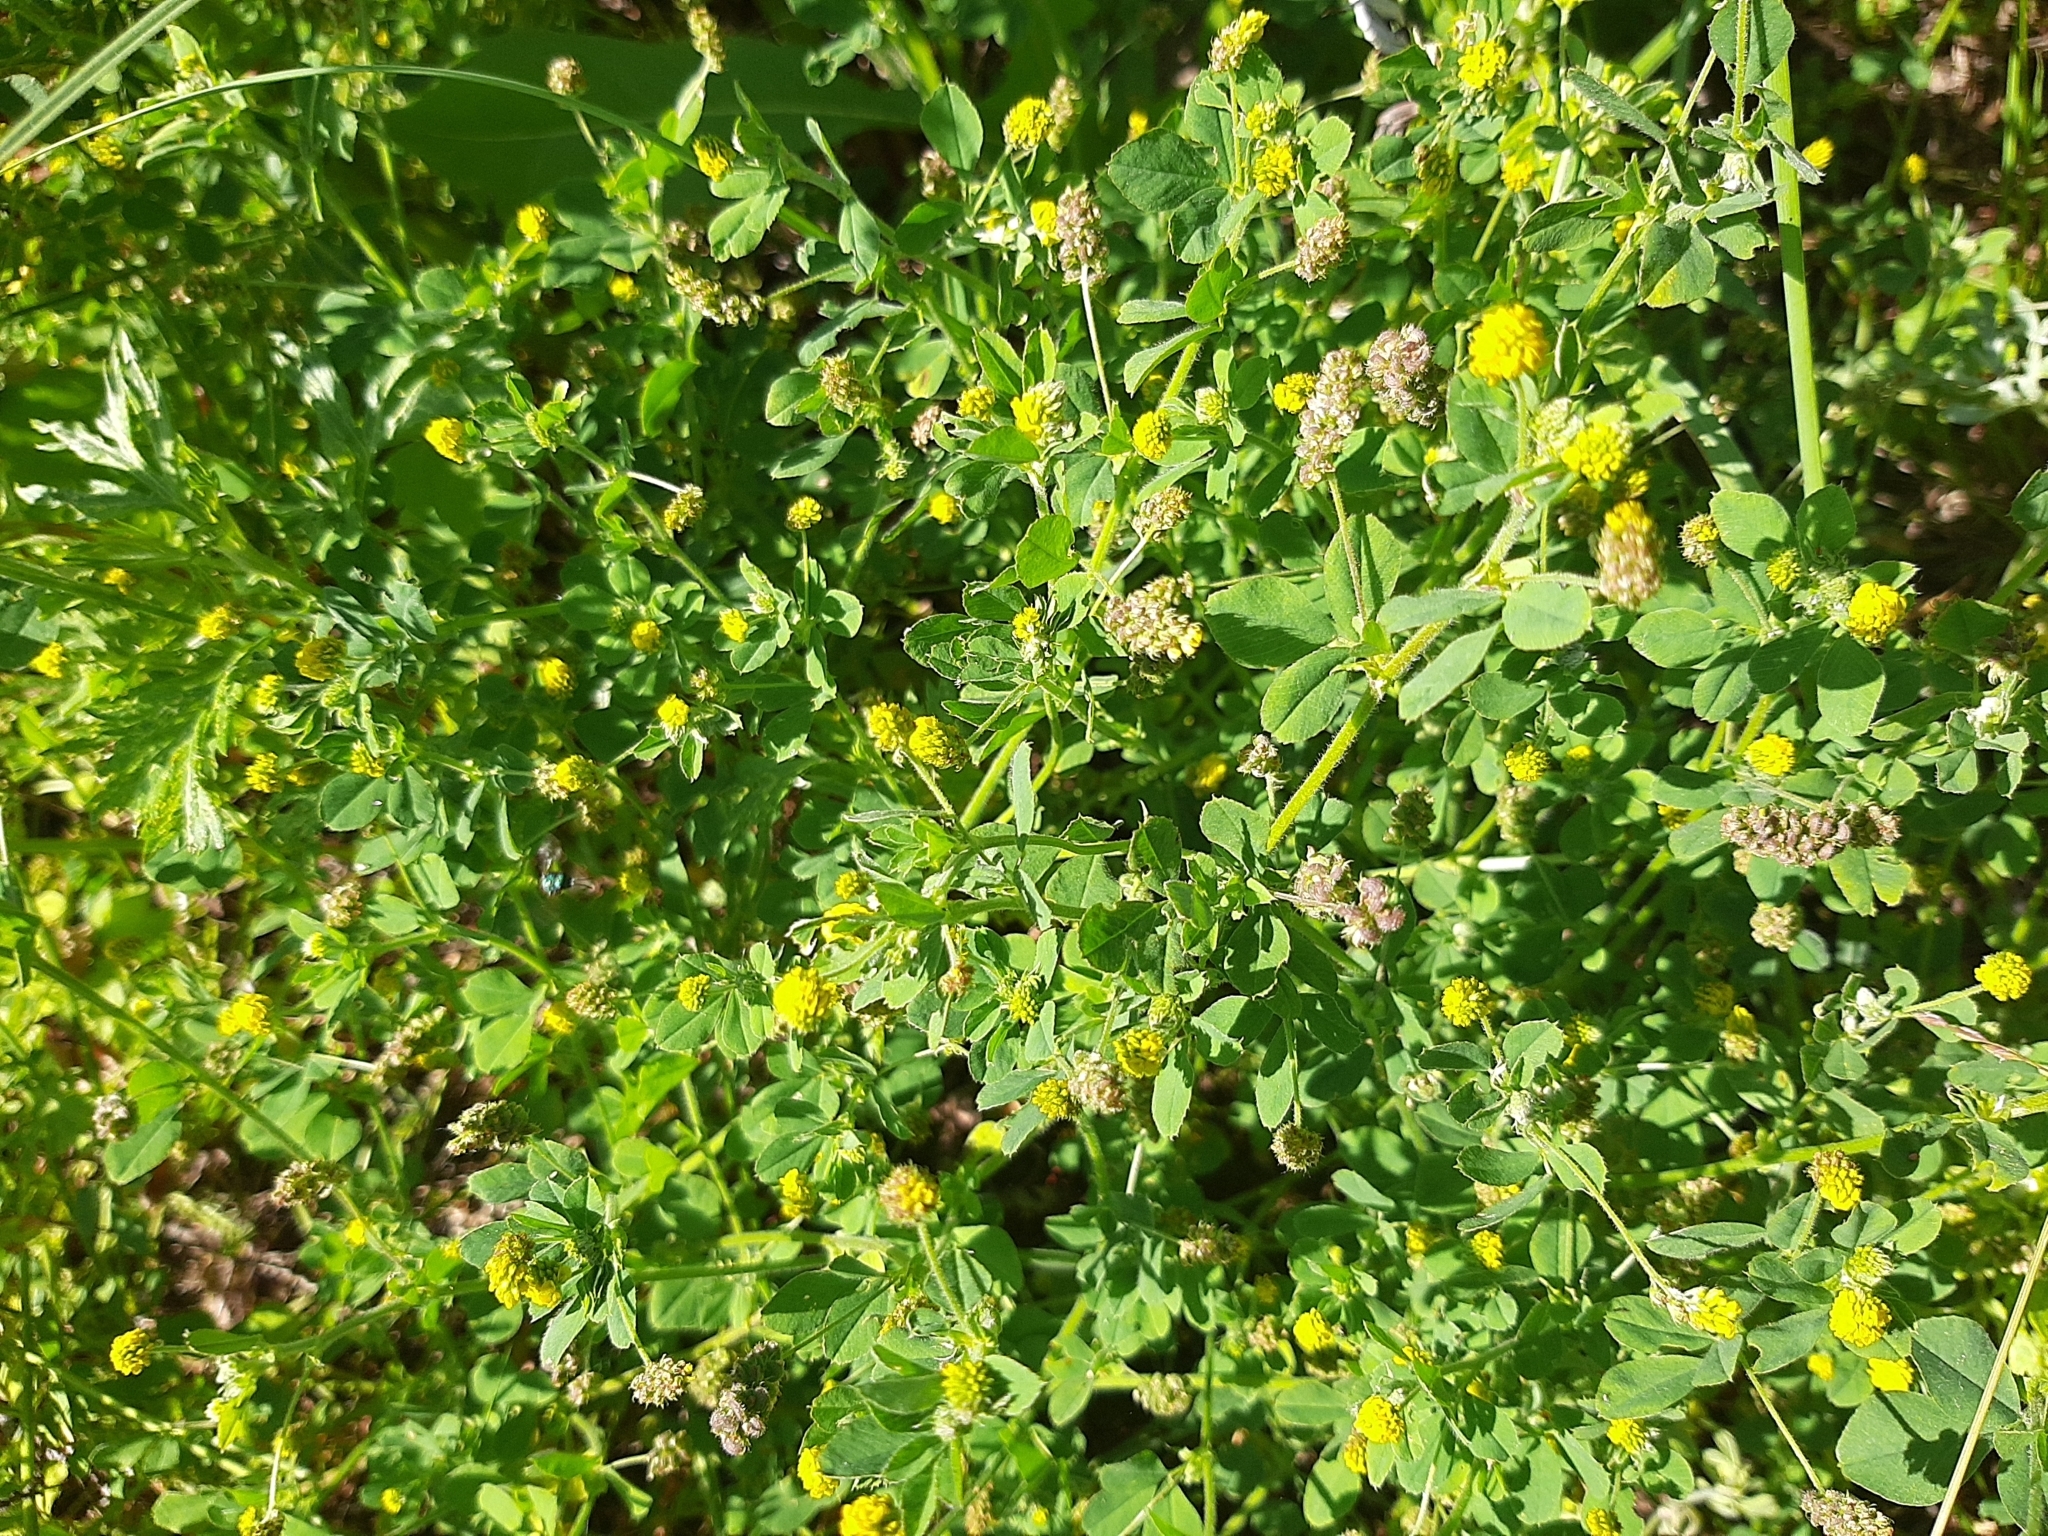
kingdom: Plantae
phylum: Tracheophyta
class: Magnoliopsida
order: Fabales
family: Fabaceae
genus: Medicago
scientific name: Medicago lupulina
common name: Black medick
